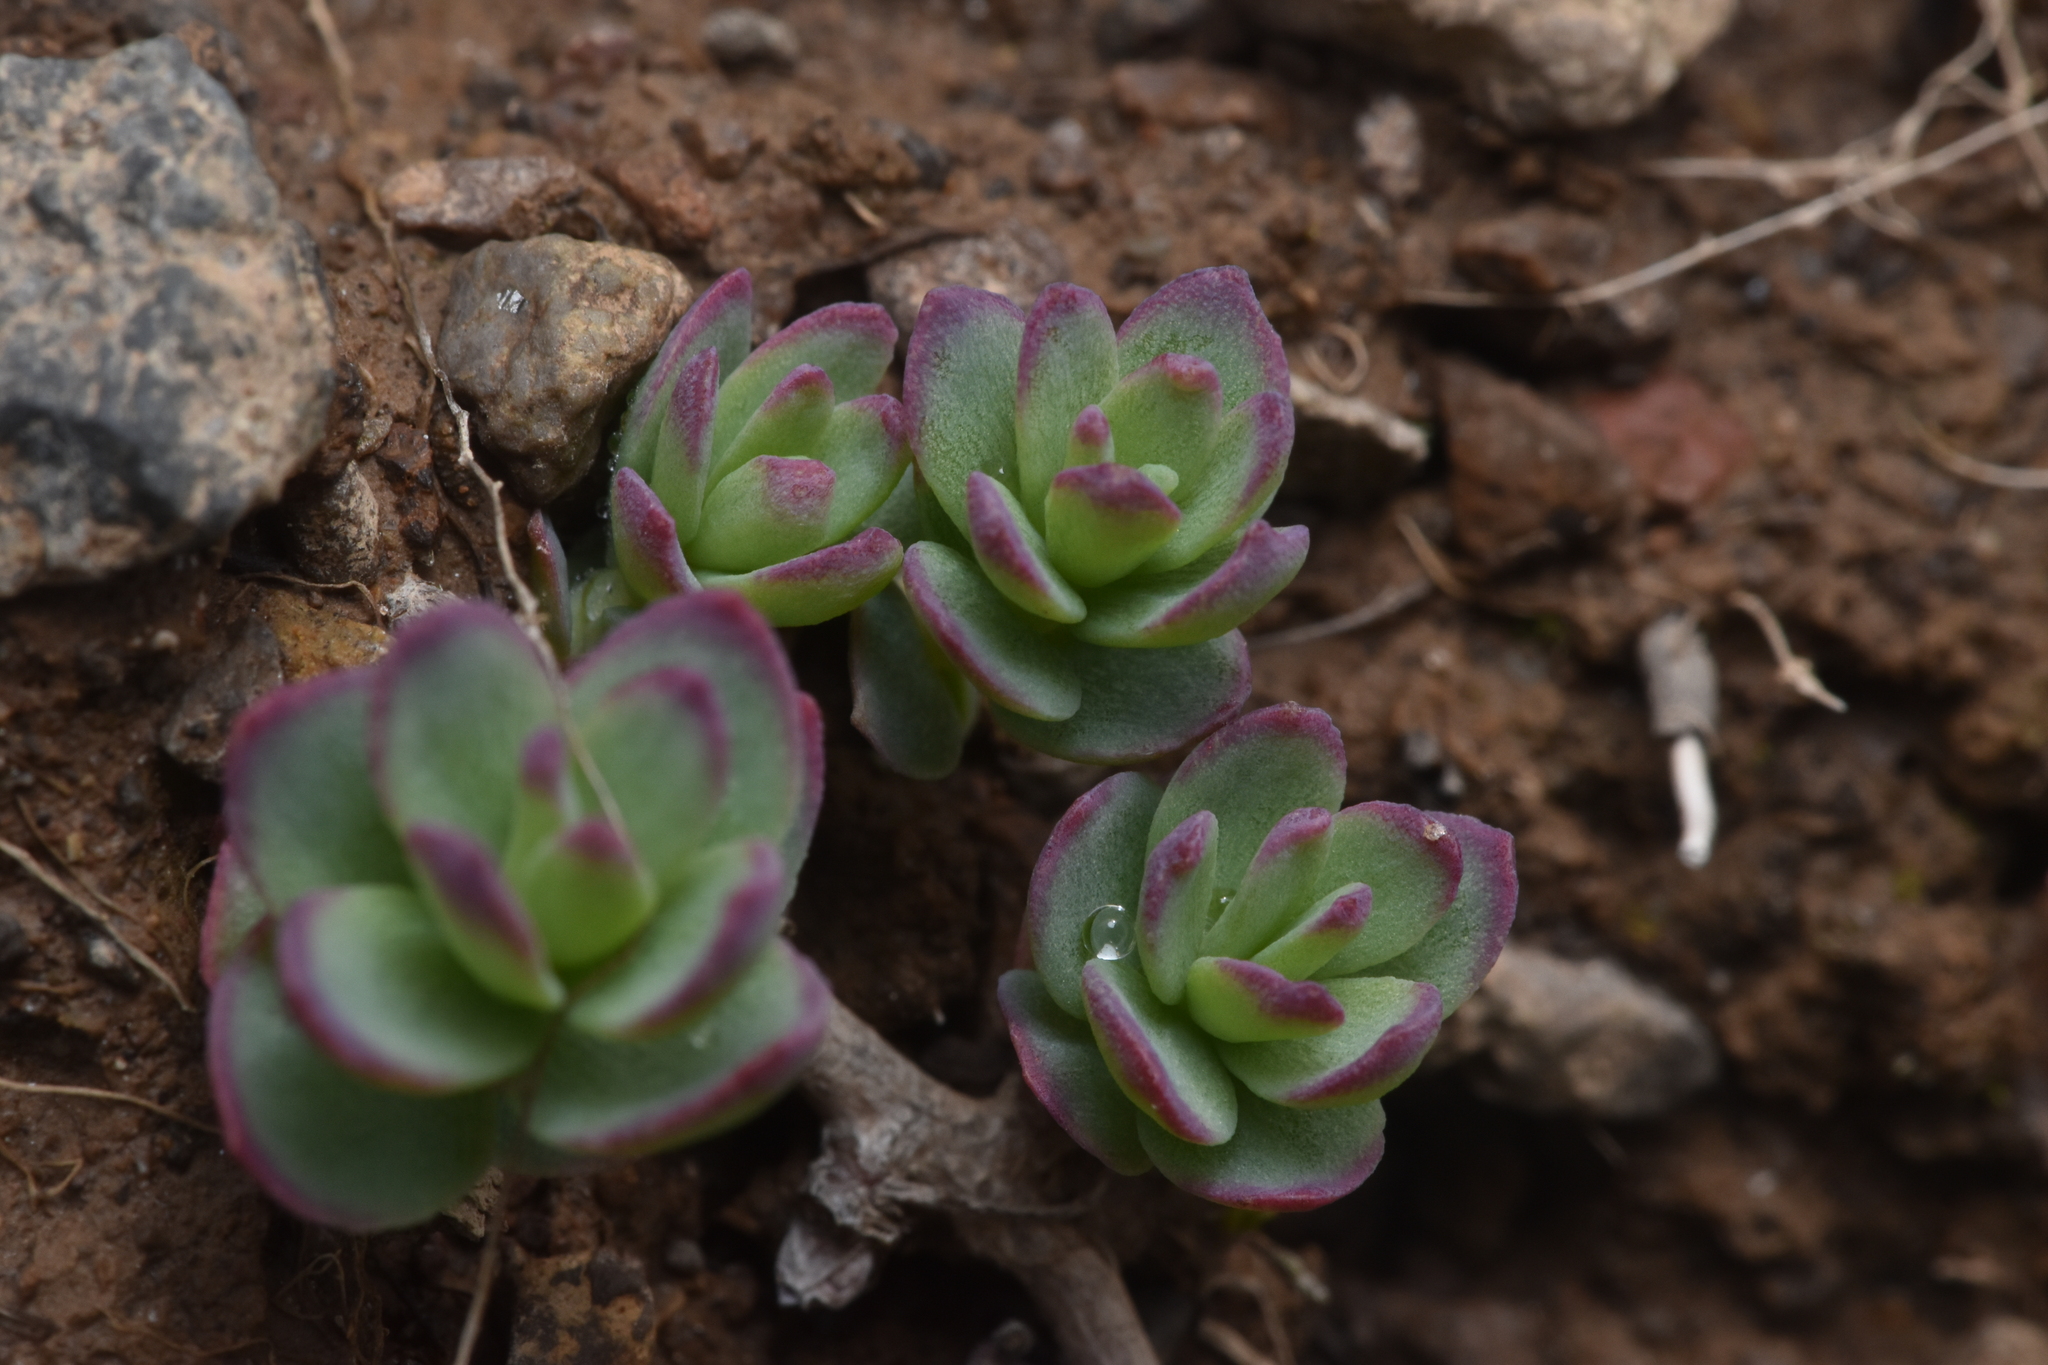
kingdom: Plantae
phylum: Tracheophyta
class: Magnoliopsida
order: Saxifragales
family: Crassulaceae
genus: Rhodiola
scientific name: Rhodiola integrifolia
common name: Western roseroot
